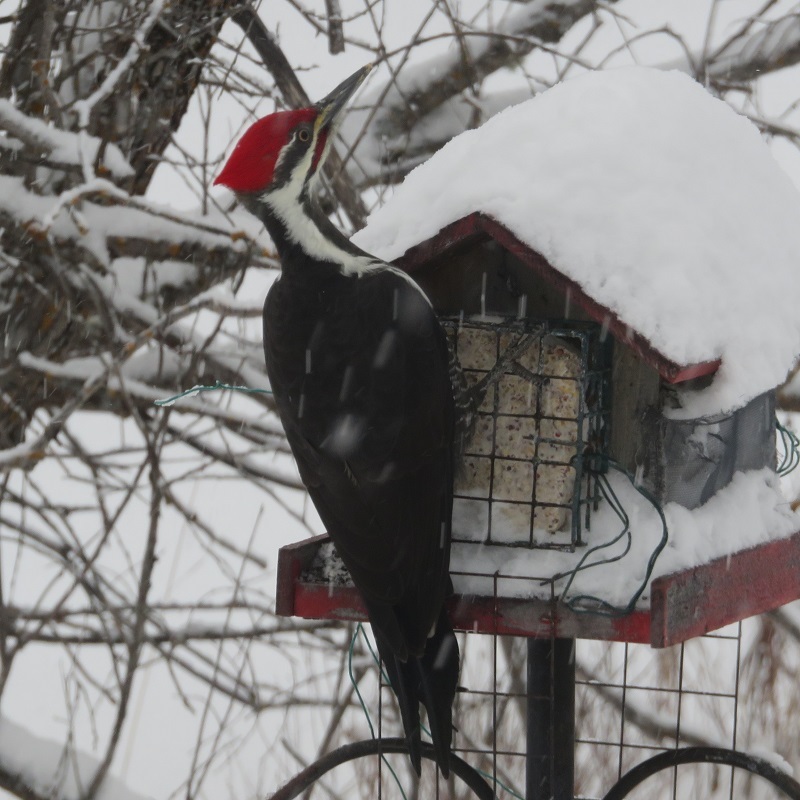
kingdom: Animalia
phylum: Chordata
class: Aves
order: Piciformes
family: Picidae
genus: Dryocopus
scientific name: Dryocopus pileatus
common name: Pileated woodpecker
